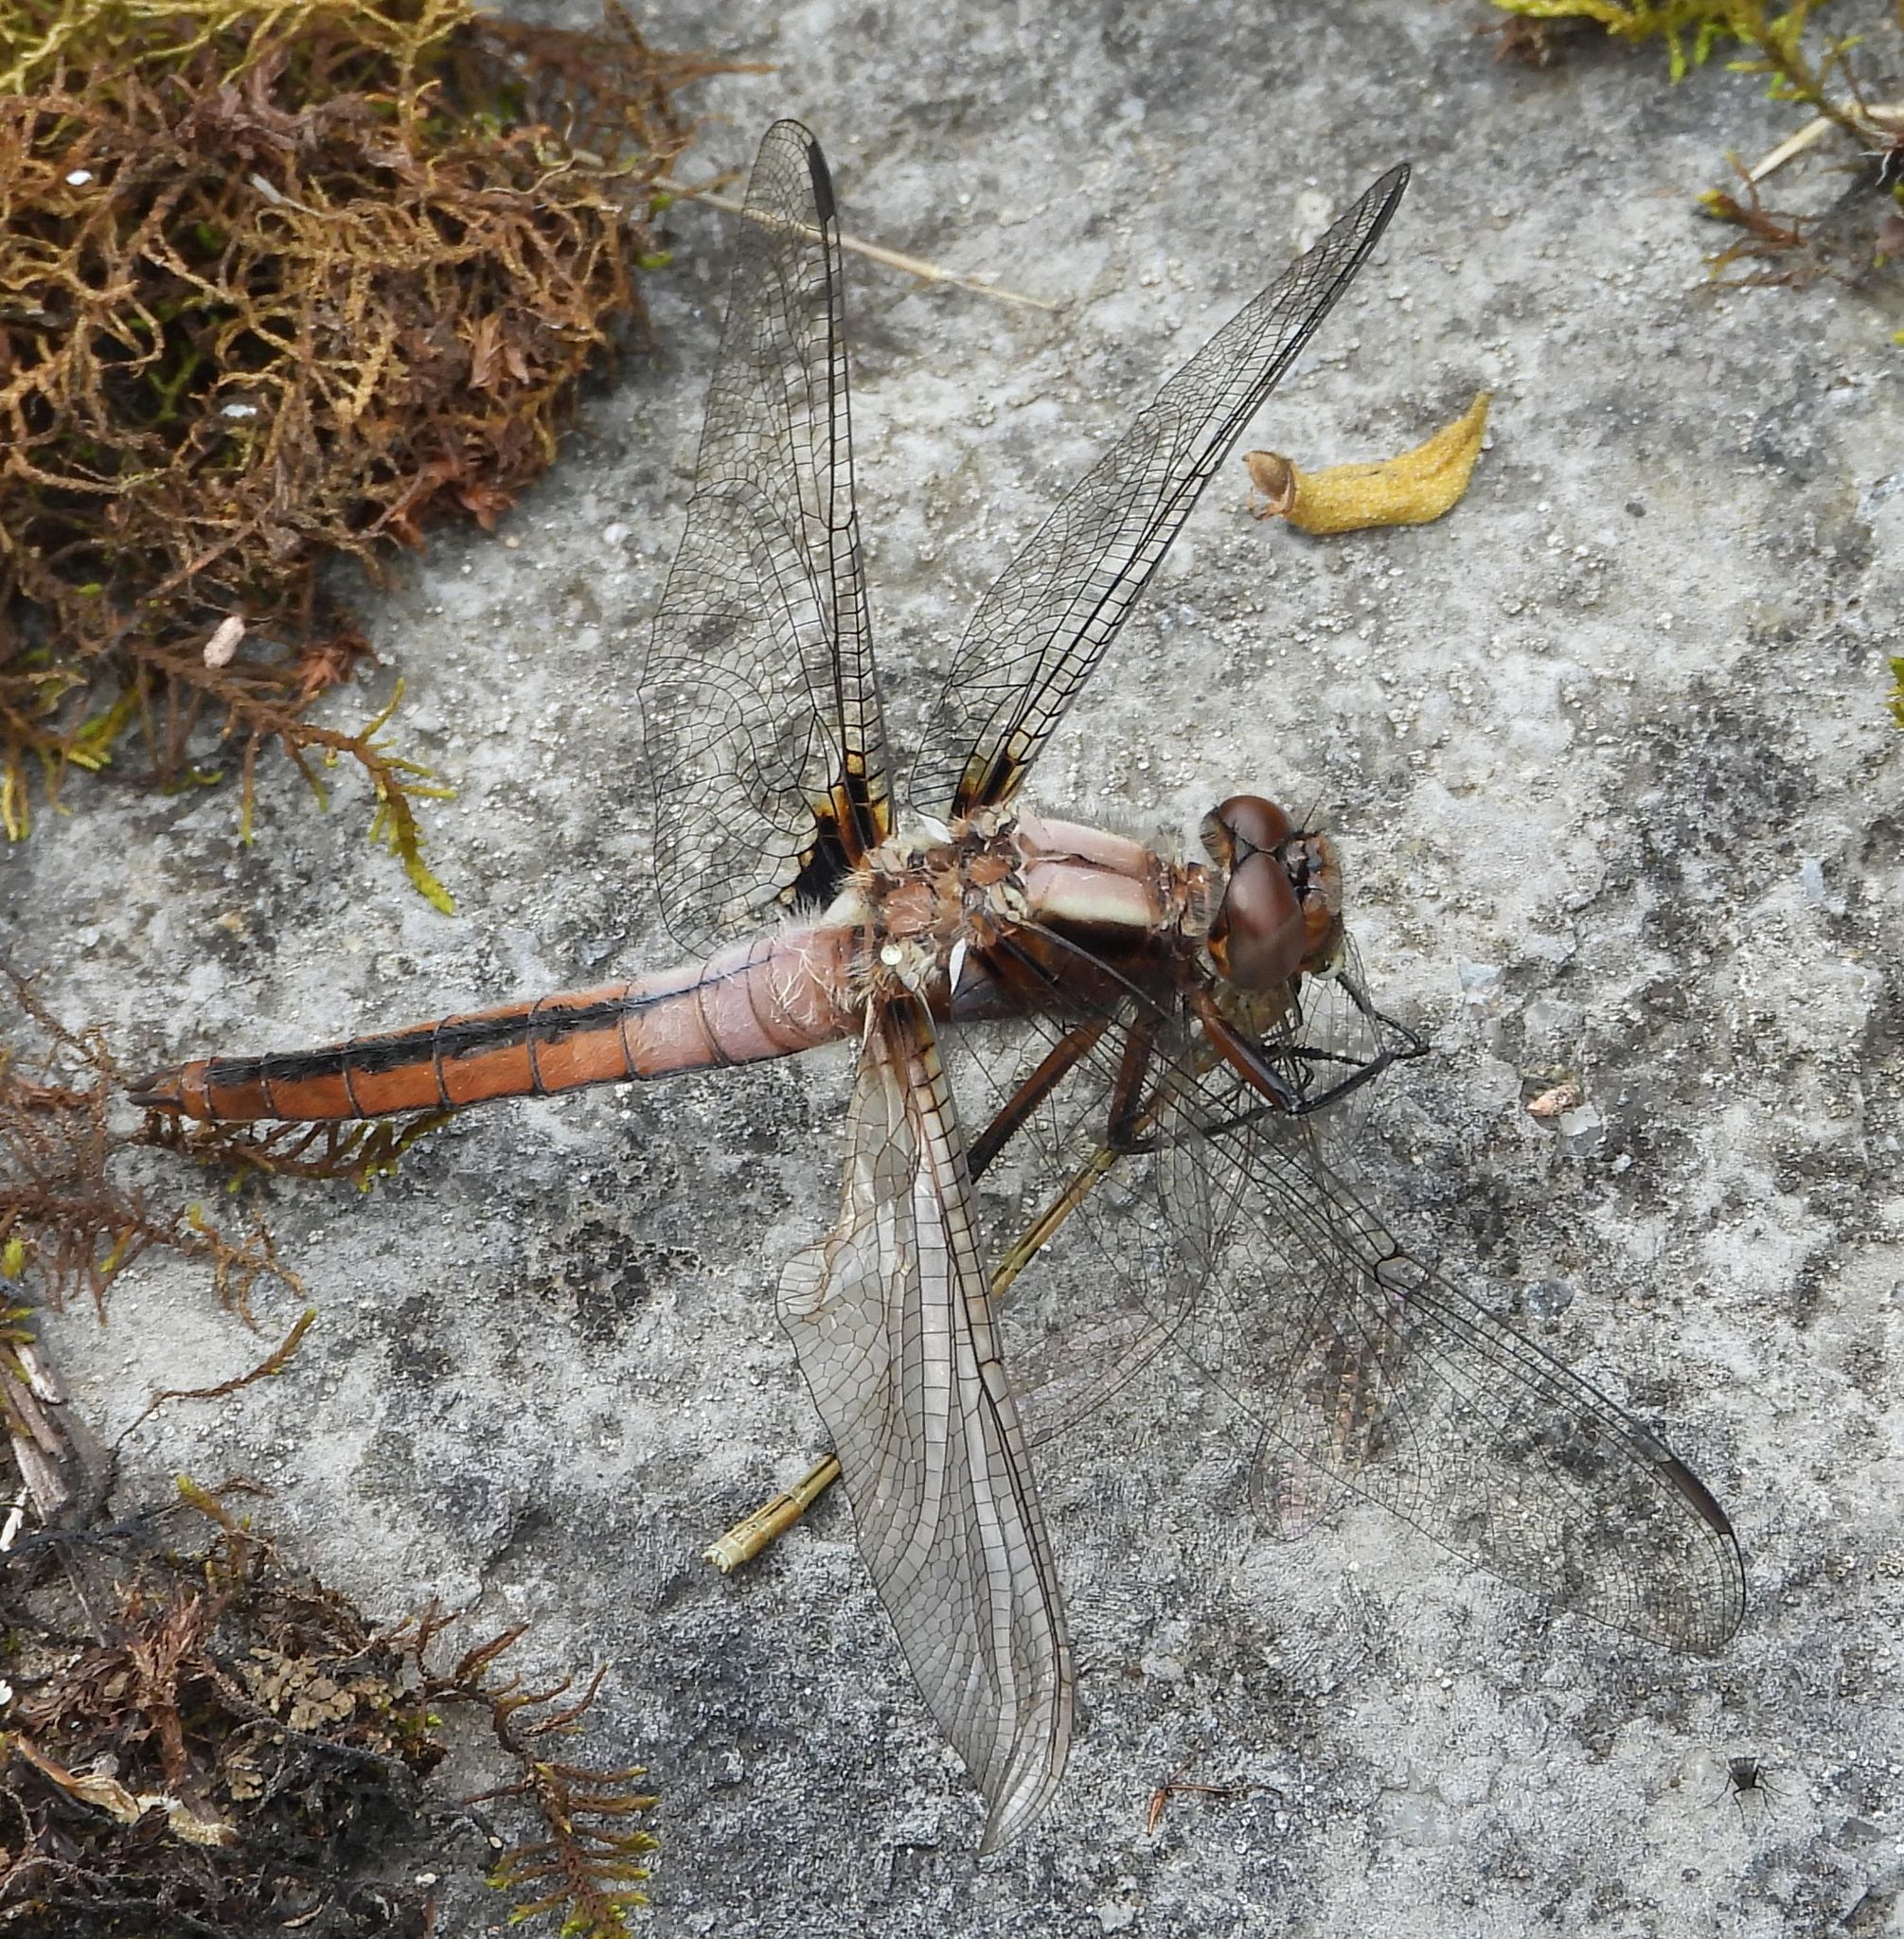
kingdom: Animalia
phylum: Arthropoda
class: Insecta
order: Odonata
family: Libellulidae
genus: Ladona
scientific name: Ladona julia
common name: Chalk-fronted corporal
